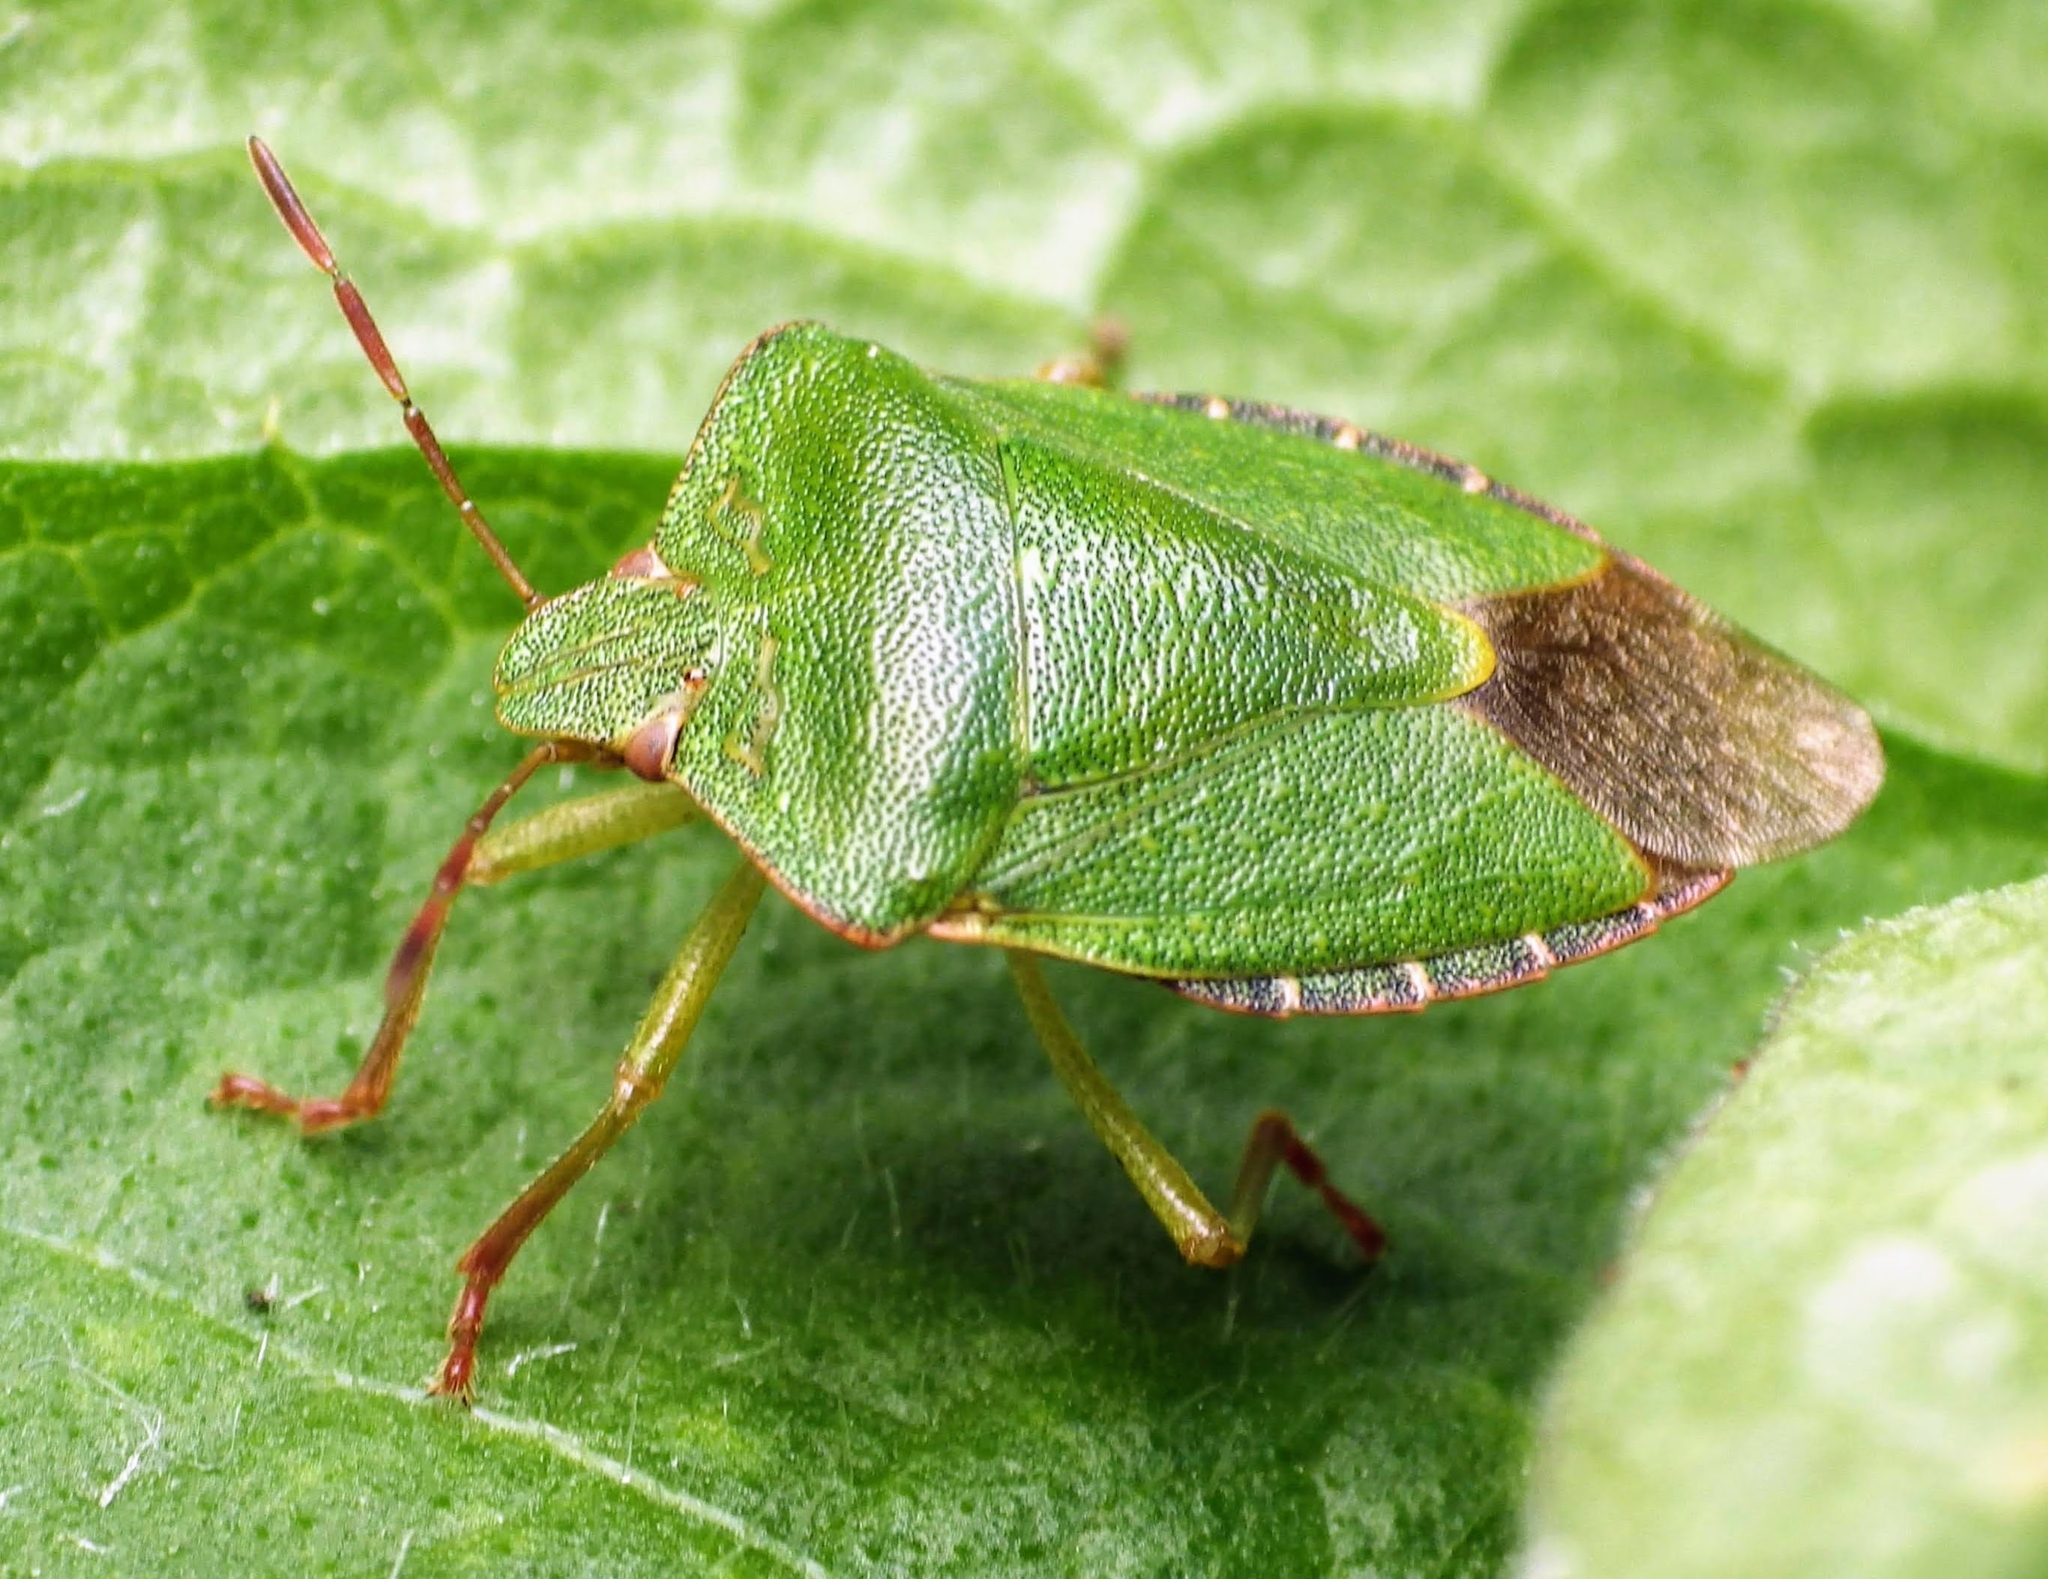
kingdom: Animalia
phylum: Arthropoda
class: Insecta
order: Hemiptera
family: Pentatomidae
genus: Palomena
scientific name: Palomena prasina
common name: Green shieldbug
